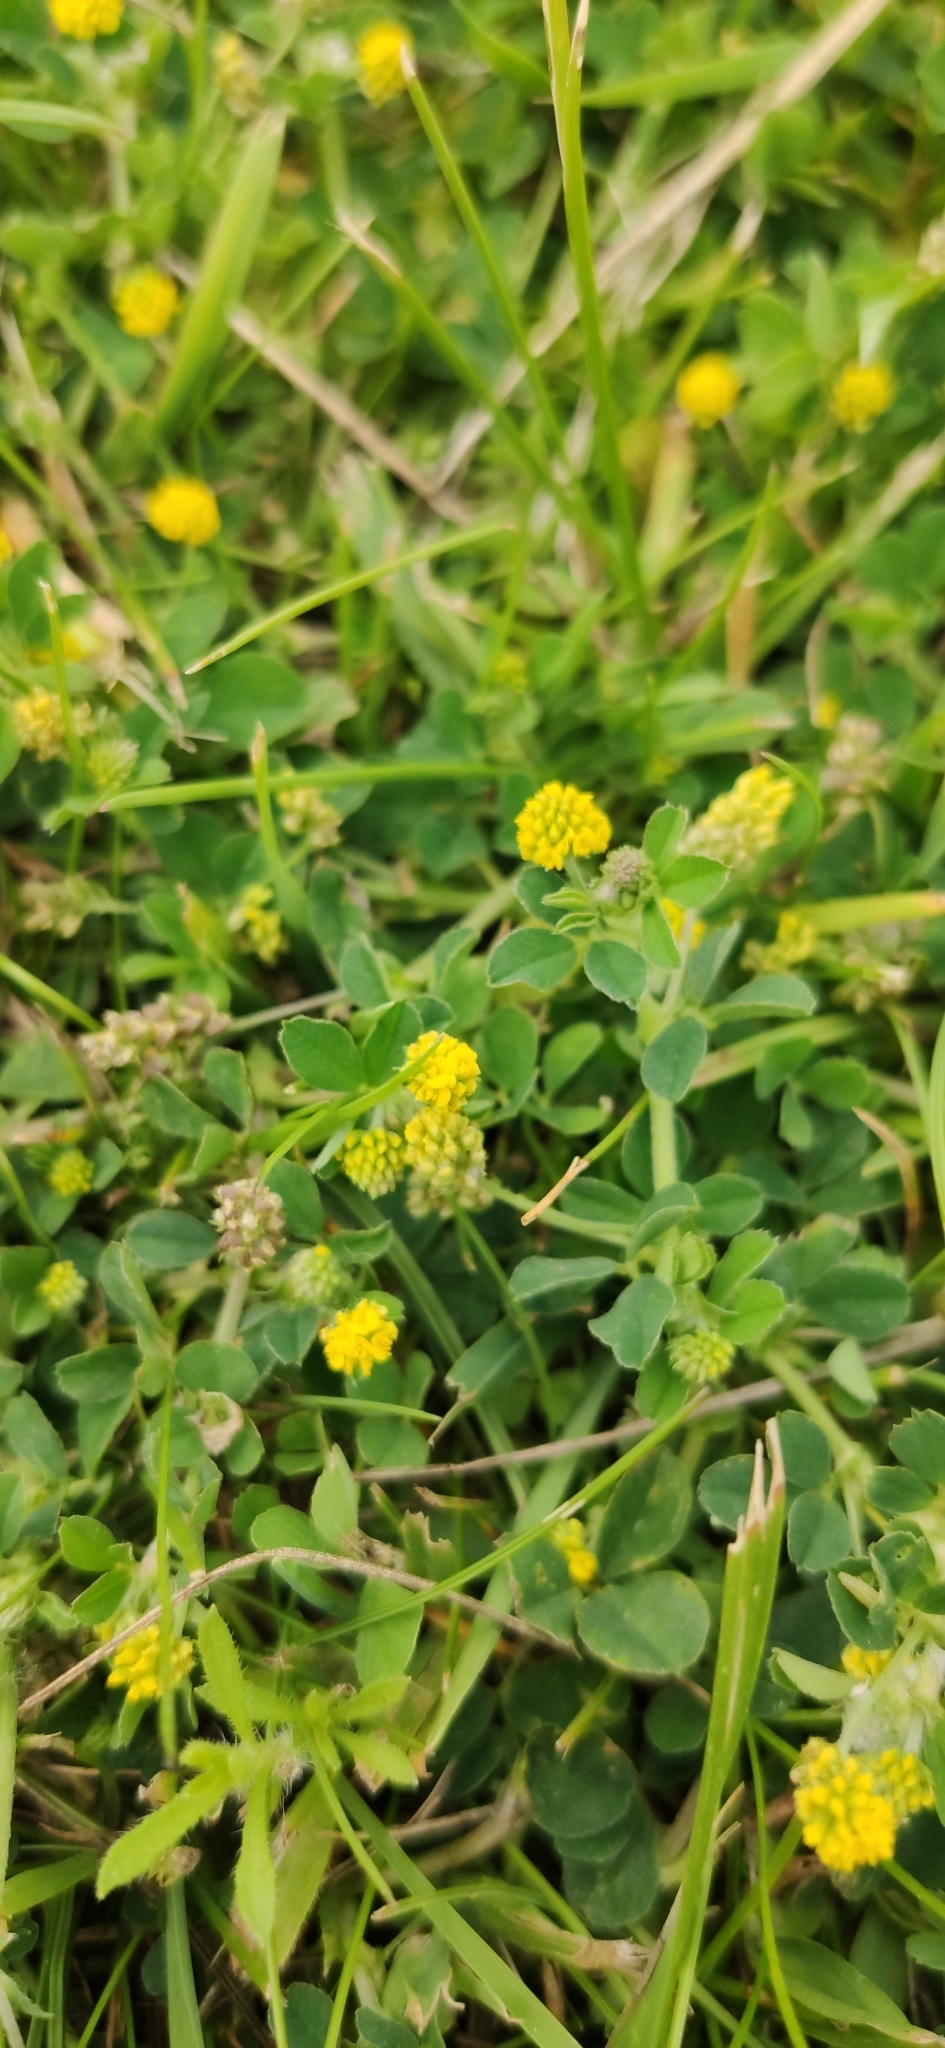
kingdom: Plantae
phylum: Tracheophyta
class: Magnoliopsida
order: Fabales
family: Fabaceae
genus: Medicago
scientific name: Medicago lupulina
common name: Black medick
